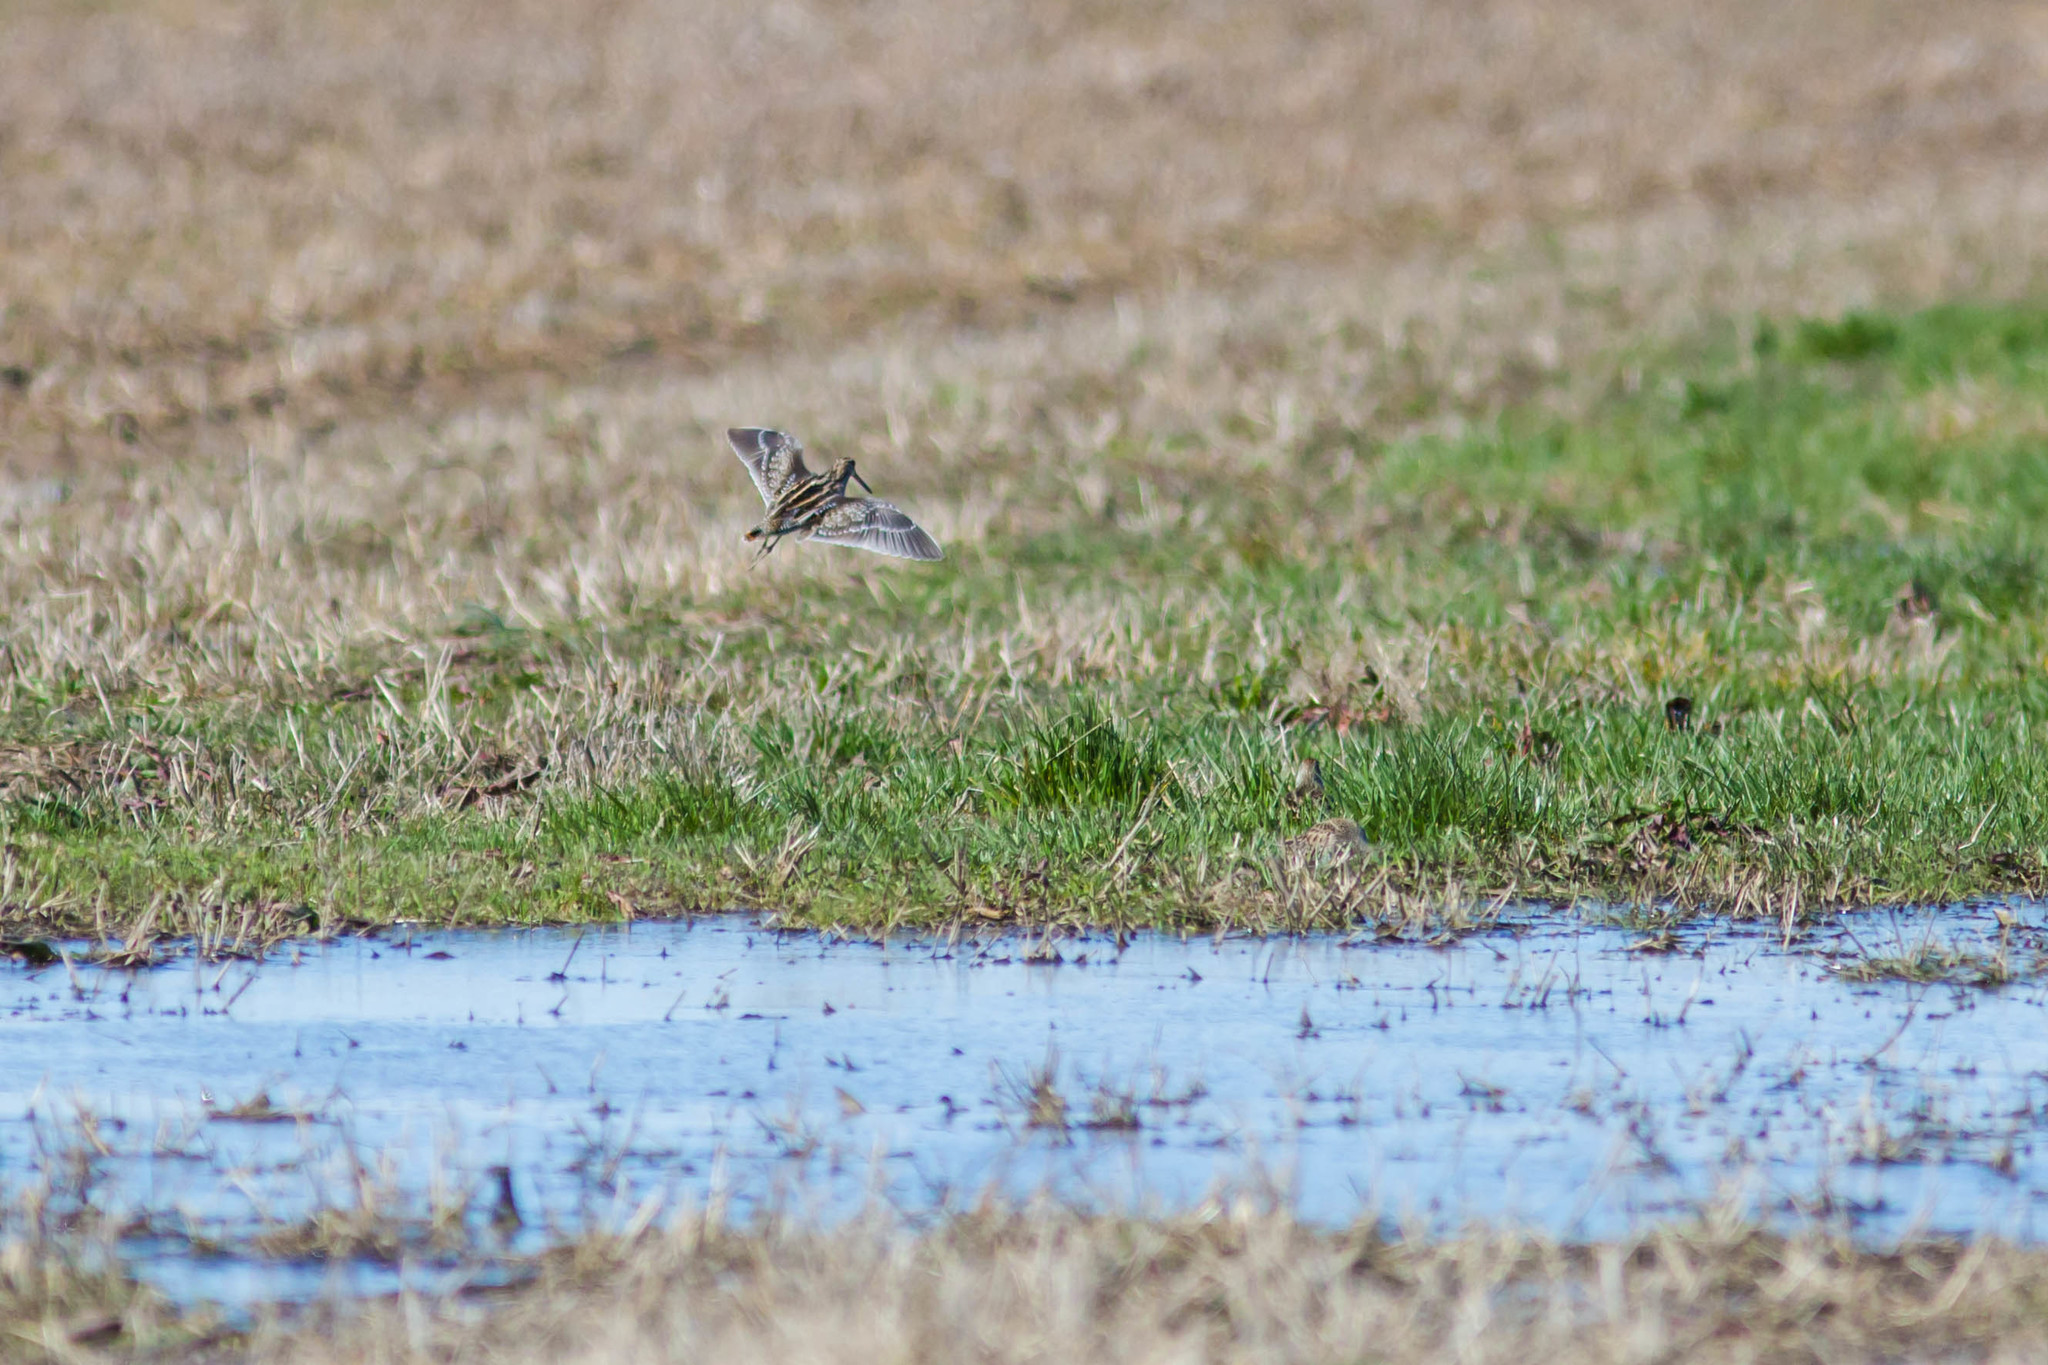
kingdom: Animalia
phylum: Chordata
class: Aves
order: Charadriiformes
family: Scolopacidae
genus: Gallinago
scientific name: Gallinago delicata
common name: Wilson's snipe
